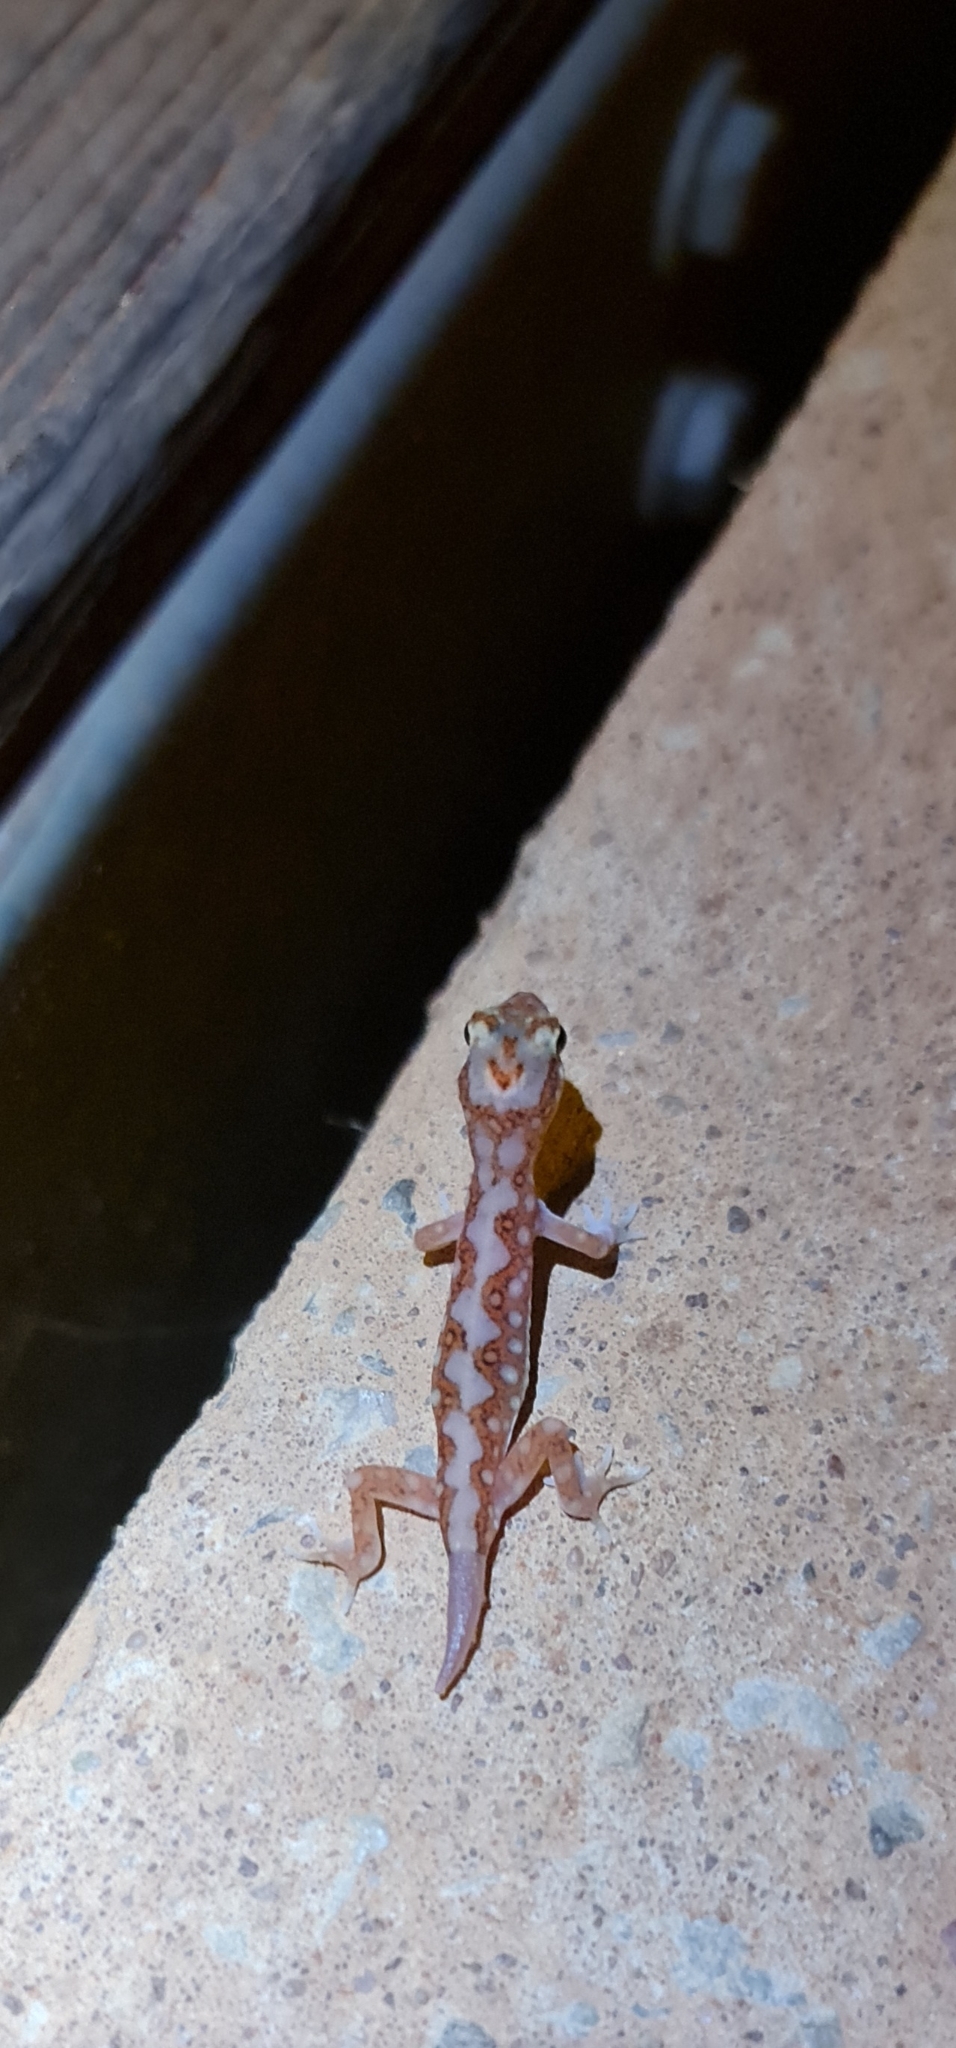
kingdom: Animalia
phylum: Chordata
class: Squamata
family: Diplodactylidae
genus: Lucasium
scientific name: Lucasium damaeum
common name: Beaded gecko
